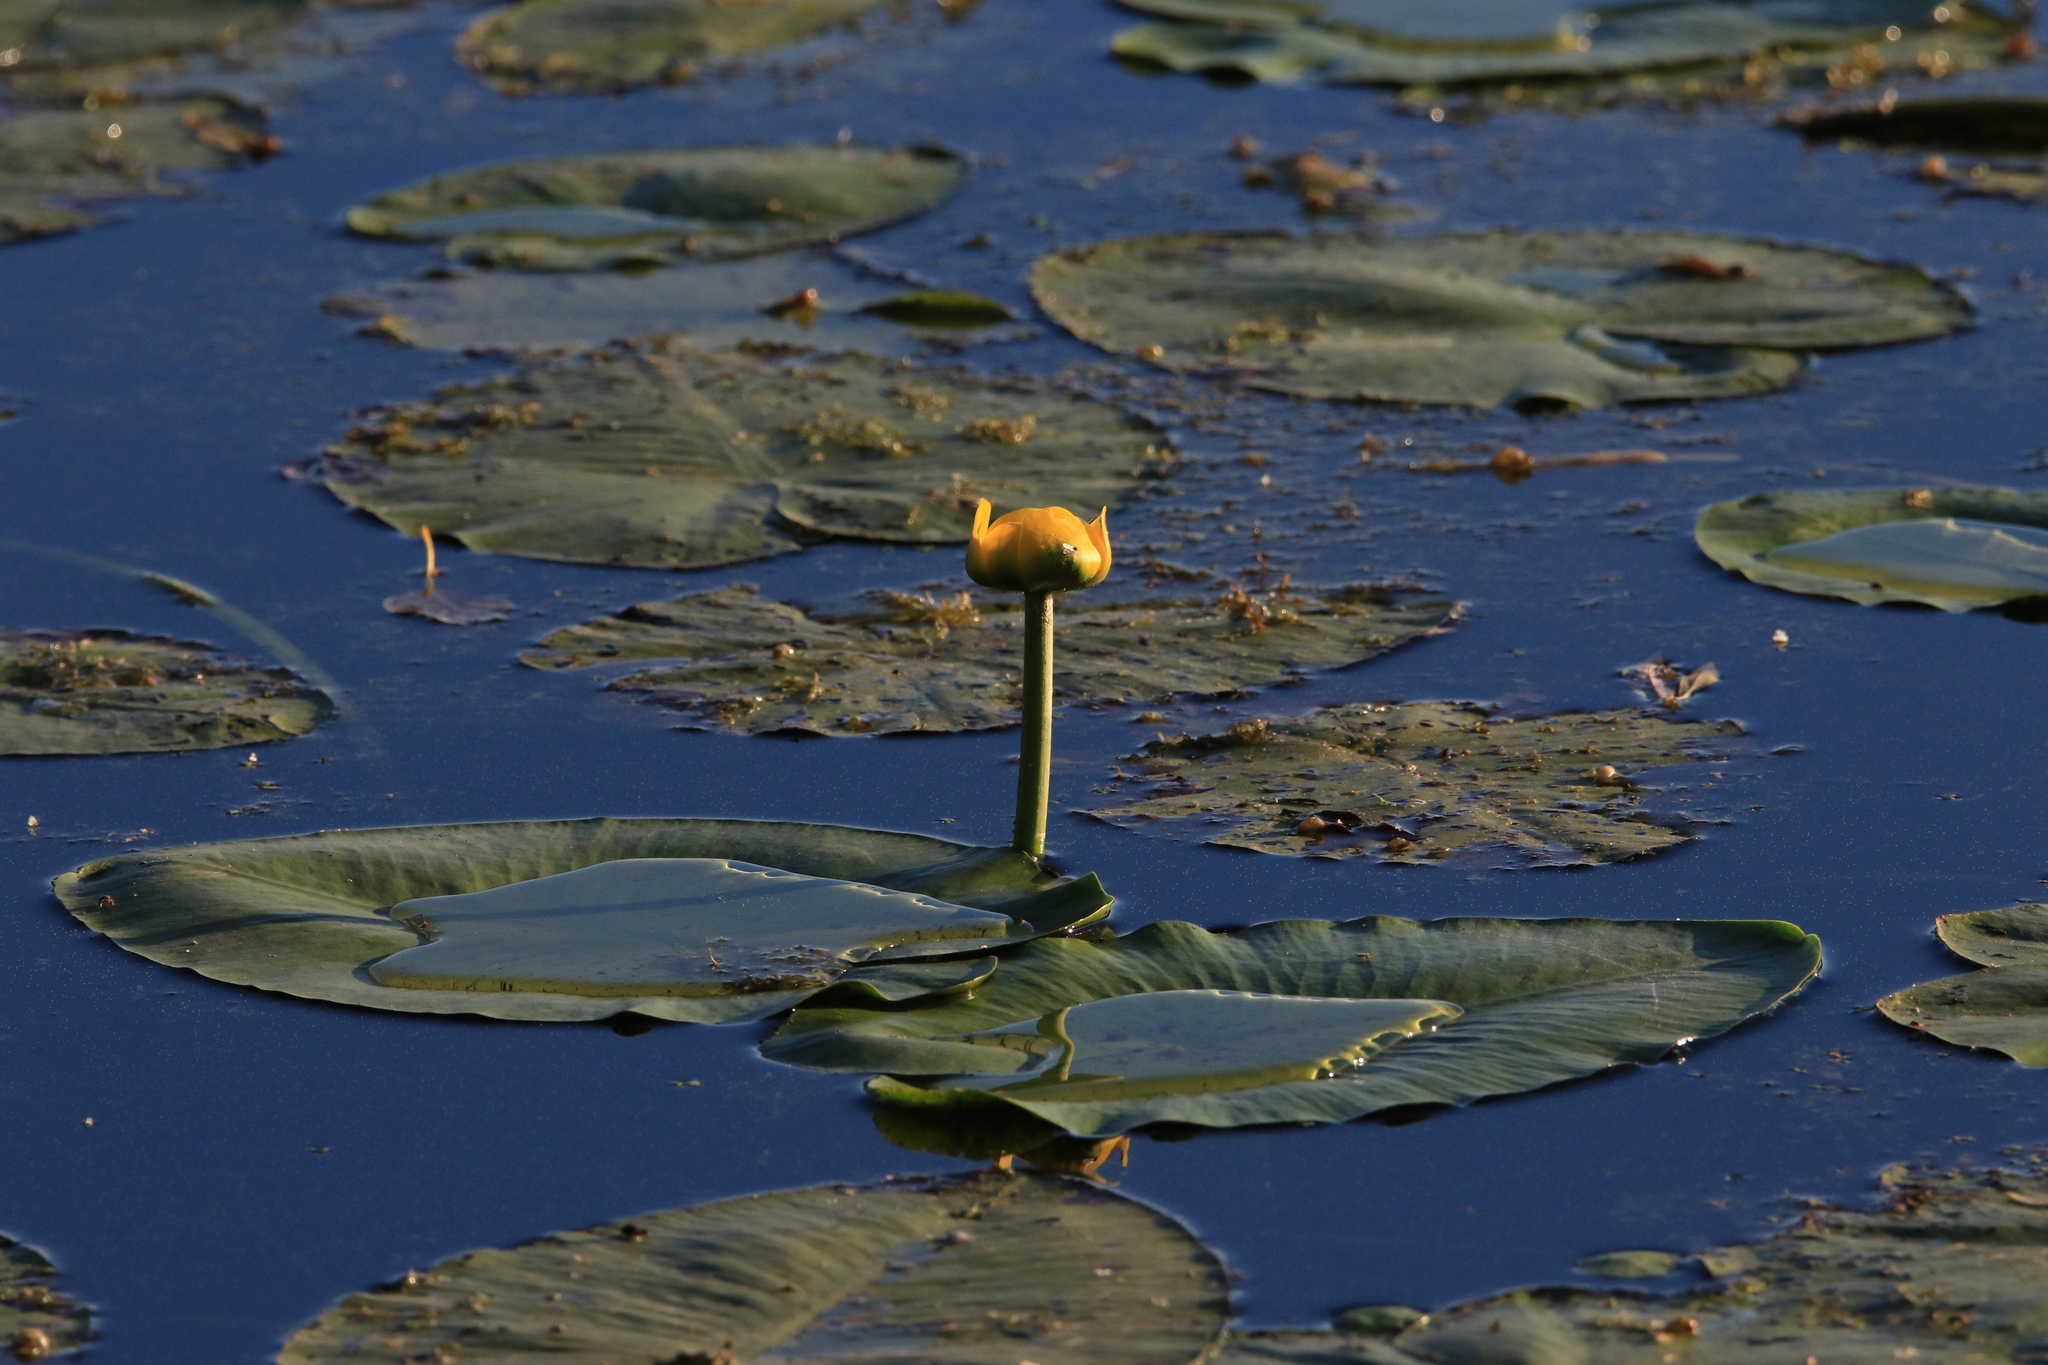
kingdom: Plantae
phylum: Tracheophyta
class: Magnoliopsida
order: Nymphaeales
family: Nymphaeaceae
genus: Nuphar
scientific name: Nuphar lutea
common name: Yellow water-lily
